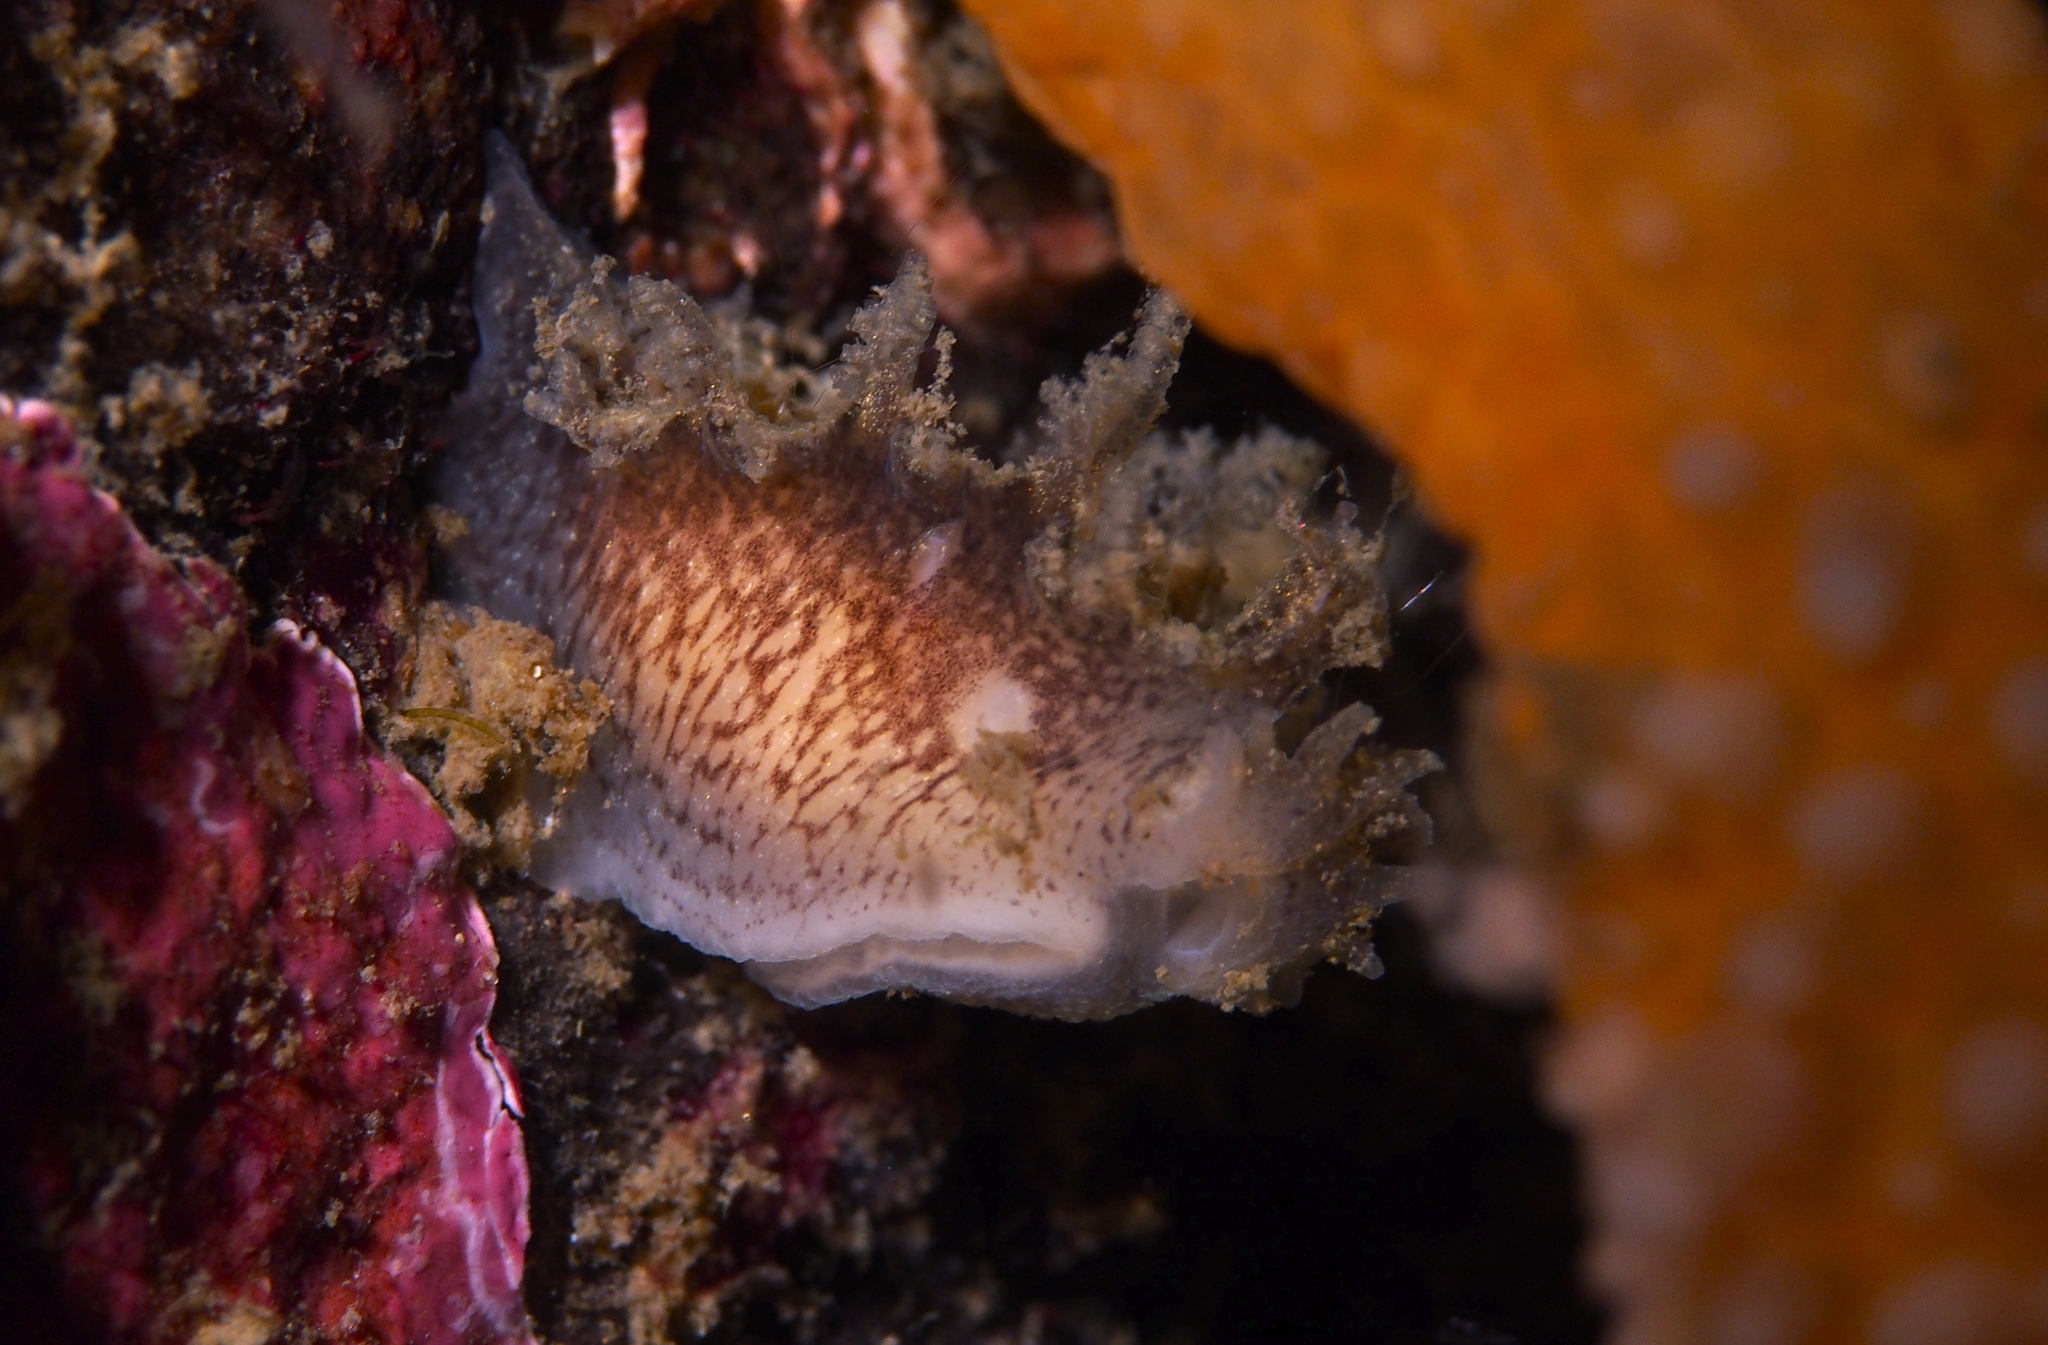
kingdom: Animalia
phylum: Mollusca
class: Gastropoda
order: Nudibranchia
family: Tritoniidae
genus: Duvaucelia
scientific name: Duvaucelia plebeia
